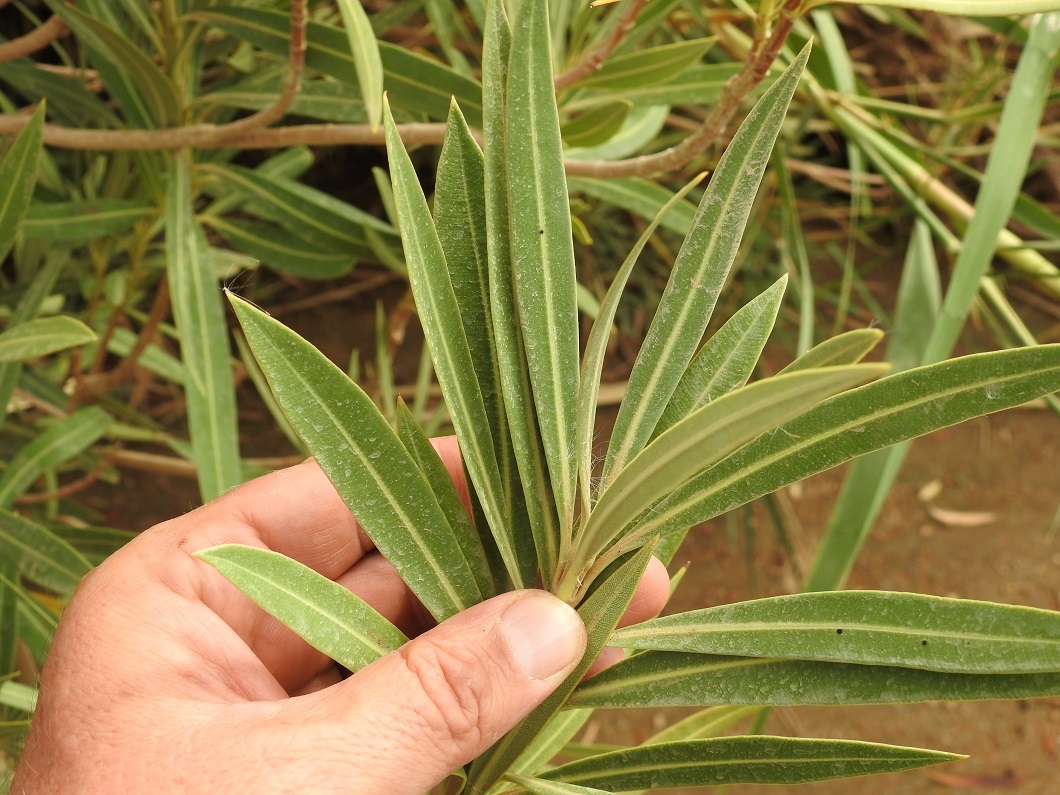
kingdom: Plantae
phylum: Tracheophyta
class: Magnoliopsida
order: Gentianales
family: Apocynaceae
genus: Nerium
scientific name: Nerium oleander
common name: Oleander
